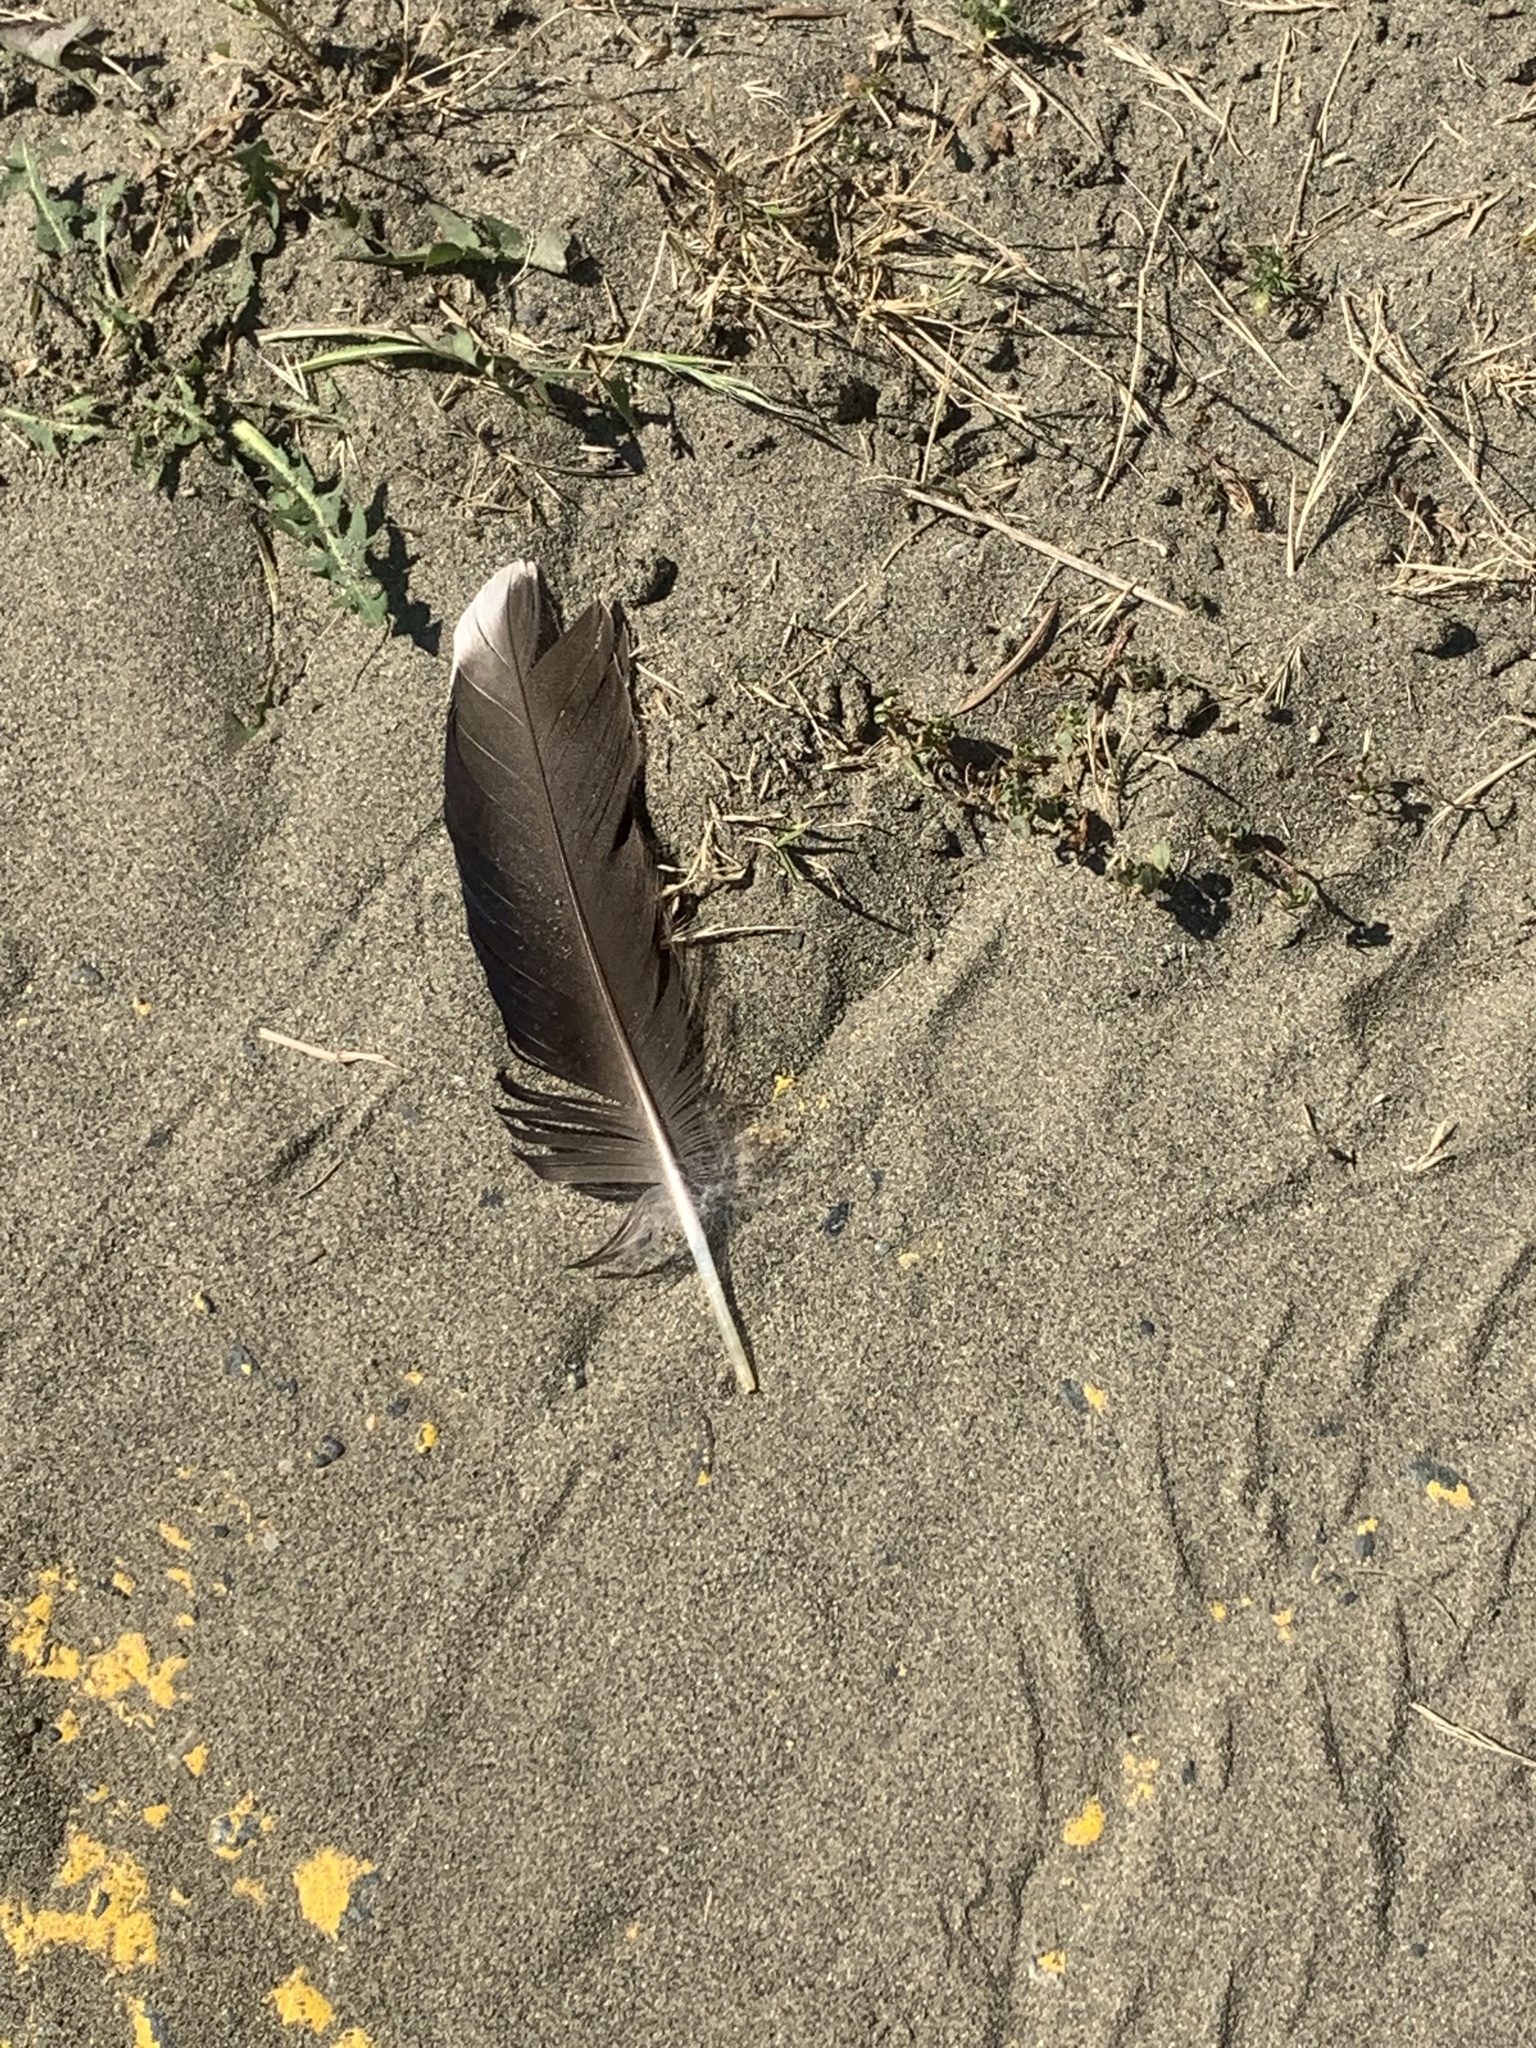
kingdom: Animalia
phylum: Chordata
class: Aves
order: Anseriformes
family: Anatidae
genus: Anas
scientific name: Anas platyrhynchos
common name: Mallard
